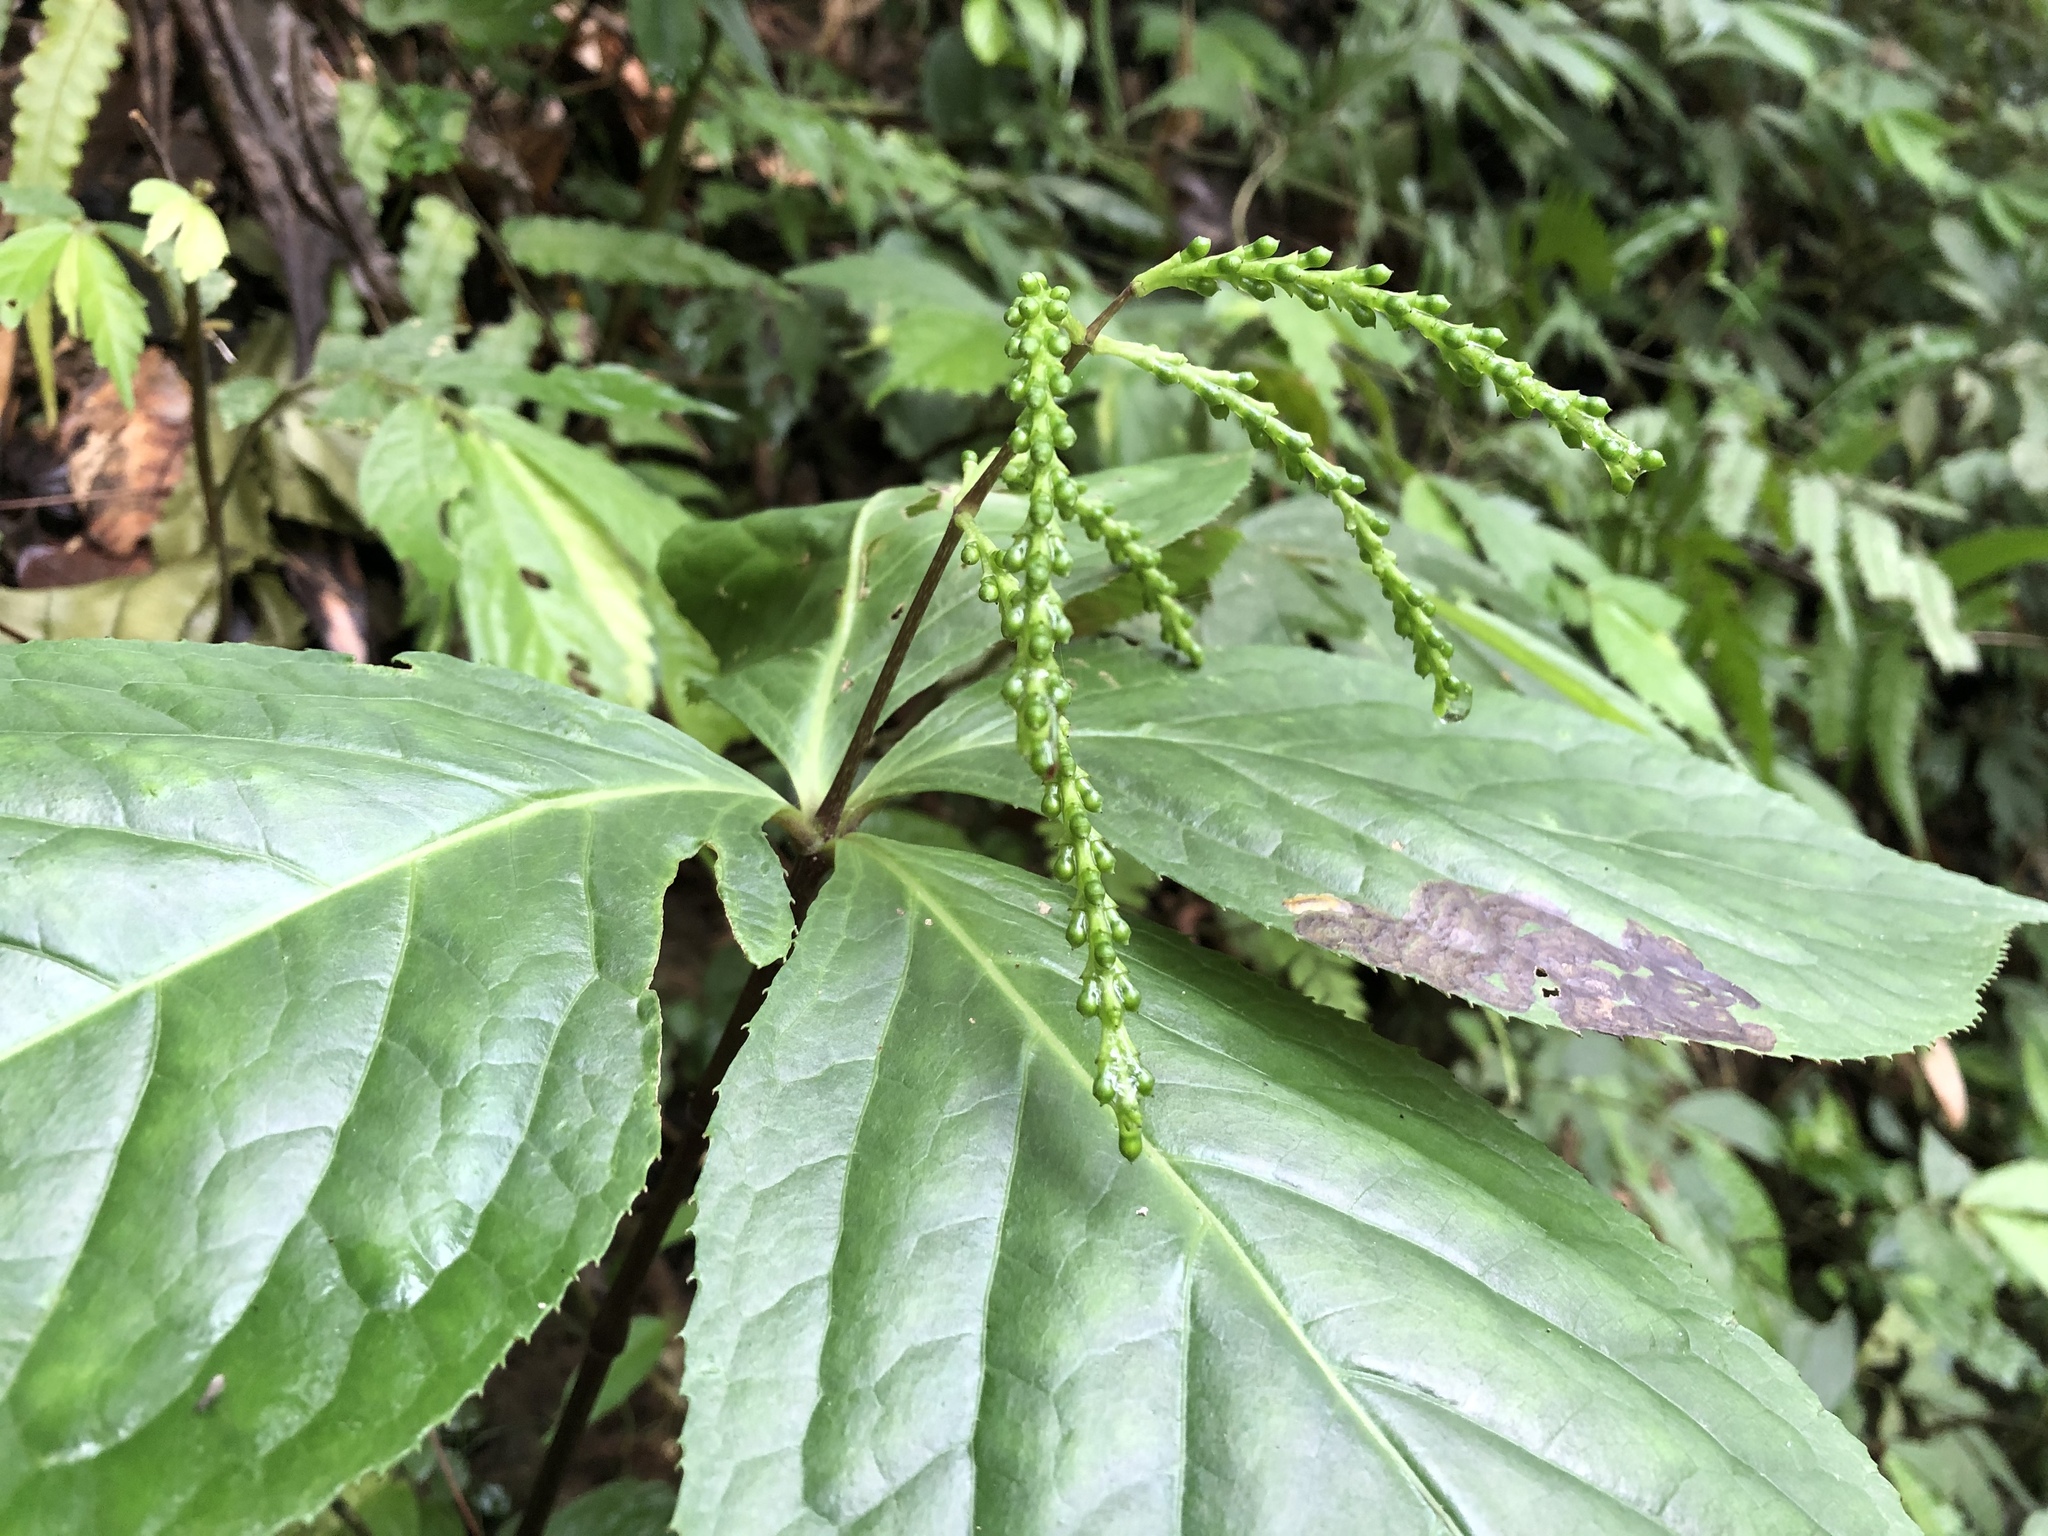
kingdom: Plantae
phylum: Tracheophyta
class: Magnoliopsida
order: Chloranthales
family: Chloranthaceae
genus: Chloranthus
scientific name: Chloranthus oldhamii
